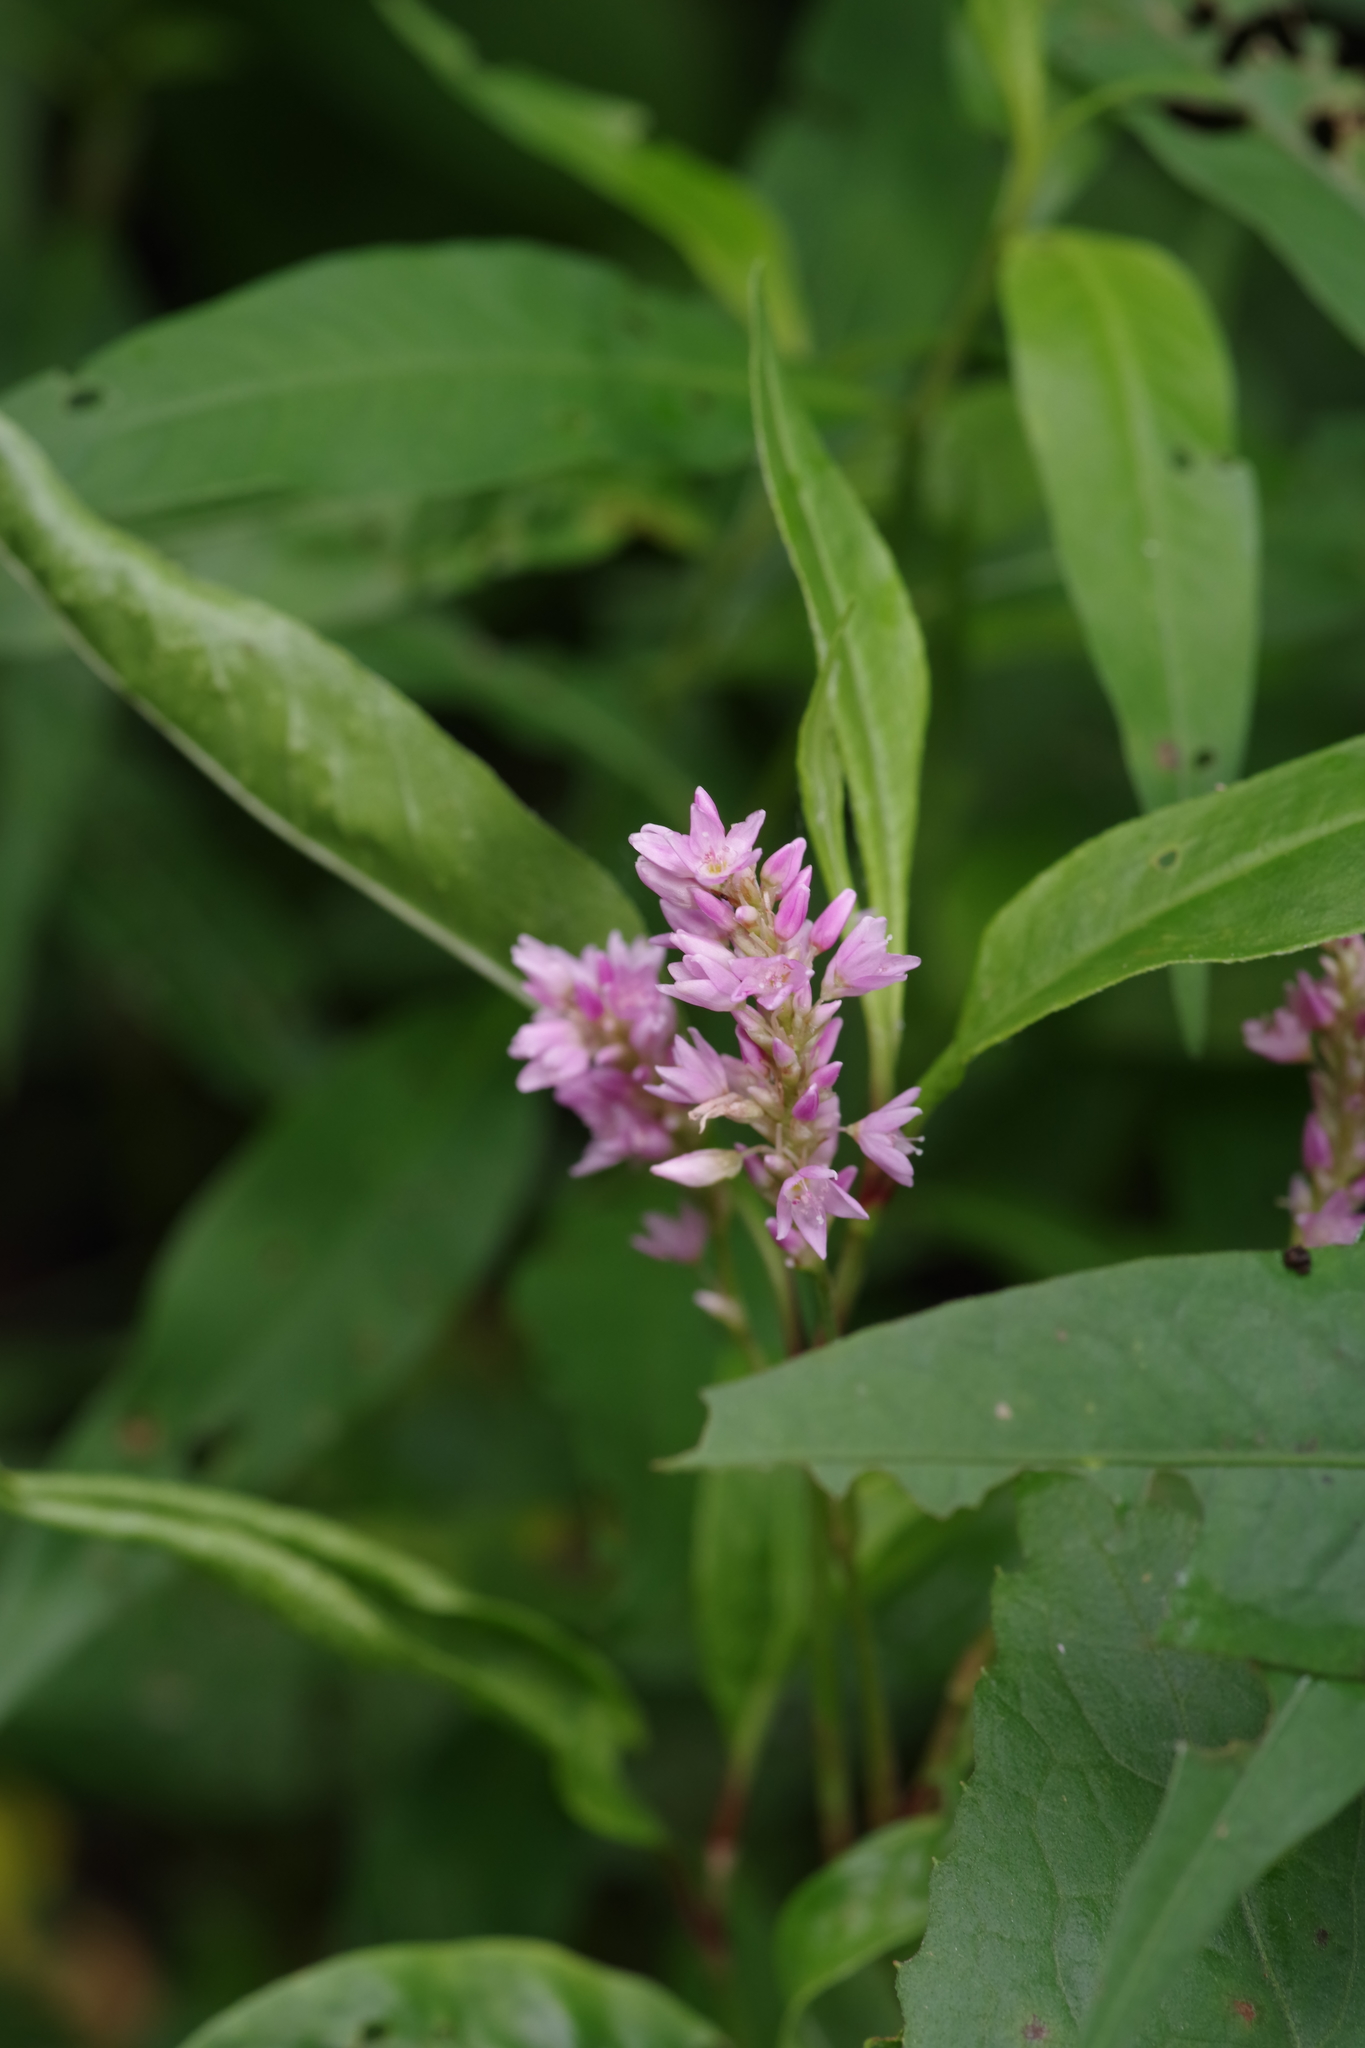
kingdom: Plantae
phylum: Tracheophyta
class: Magnoliopsida
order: Caryophyllales
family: Polygonaceae
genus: Persicaria
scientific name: Persicaria bicornis
